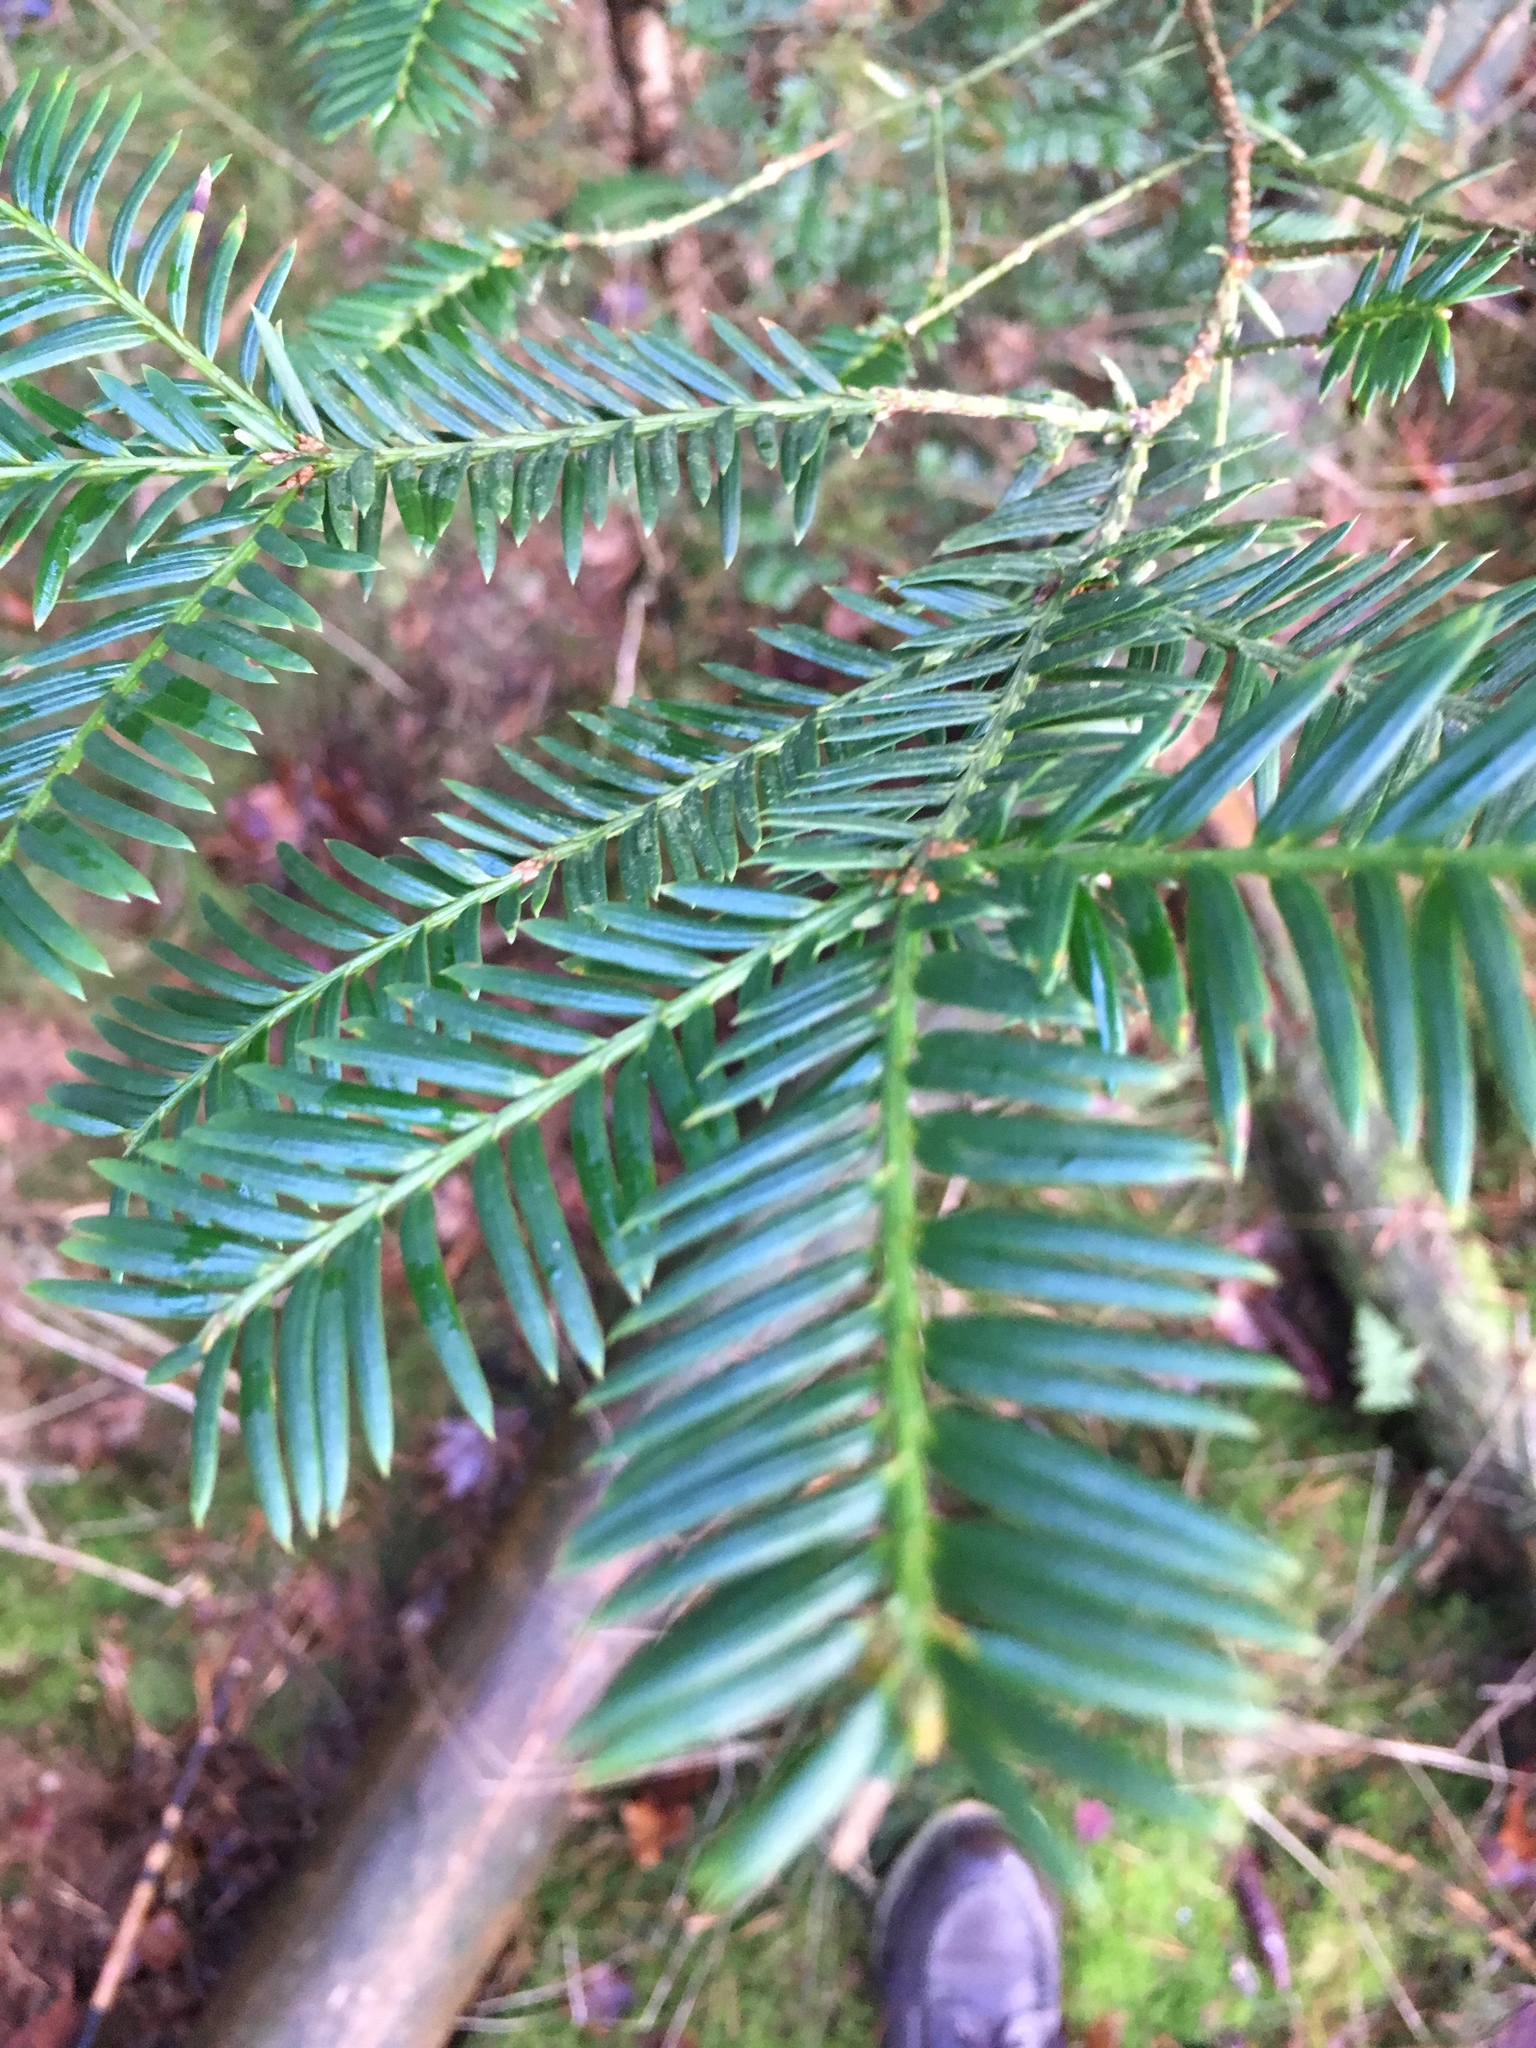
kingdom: Plantae
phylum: Tracheophyta
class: Pinopsida
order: Pinales
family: Taxaceae
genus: Taxus
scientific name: Taxus baccata
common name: Yew
